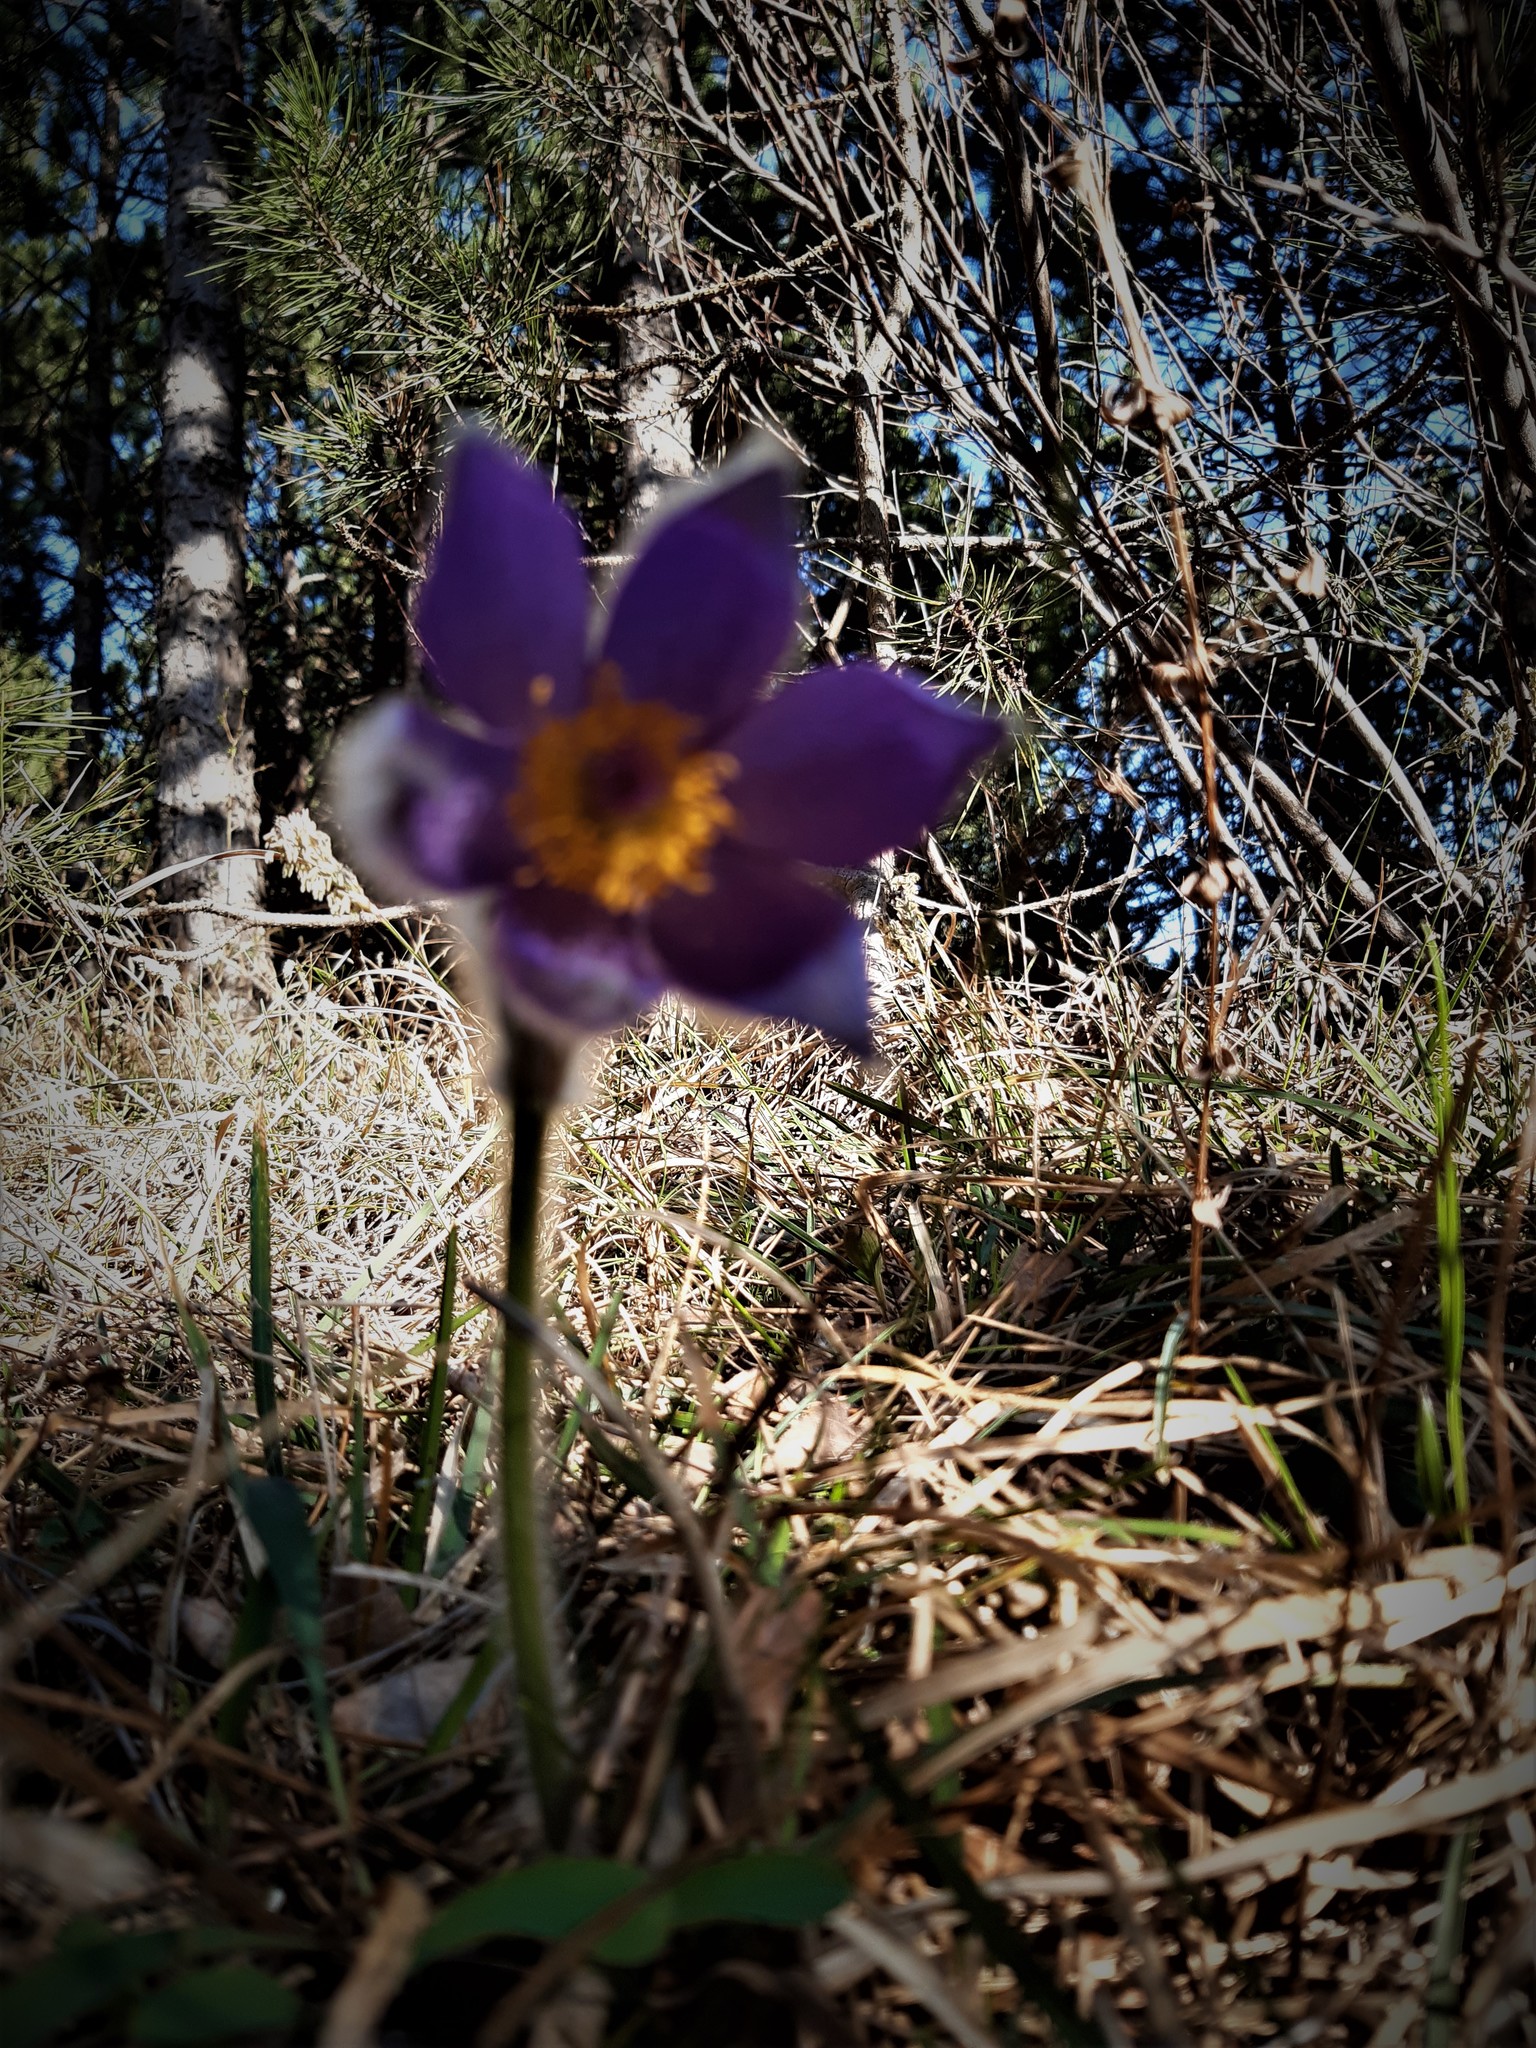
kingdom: Plantae
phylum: Tracheophyta
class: Magnoliopsida
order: Ranunculales
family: Ranunculaceae
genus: Pulsatilla
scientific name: Pulsatilla grandis
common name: Greater pasque flower
